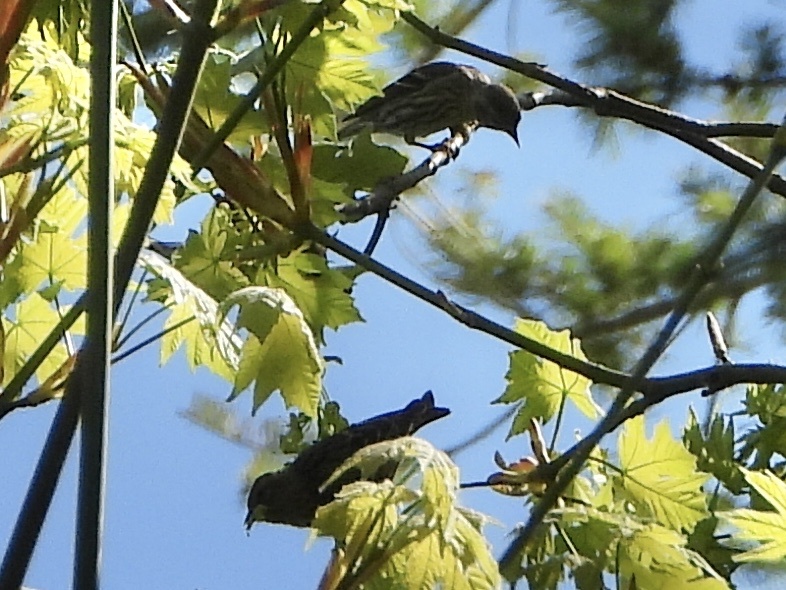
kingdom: Animalia
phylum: Chordata
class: Aves
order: Passeriformes
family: Fringillidae
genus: Spinus
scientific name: Spinus pinus
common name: Pine siskin
